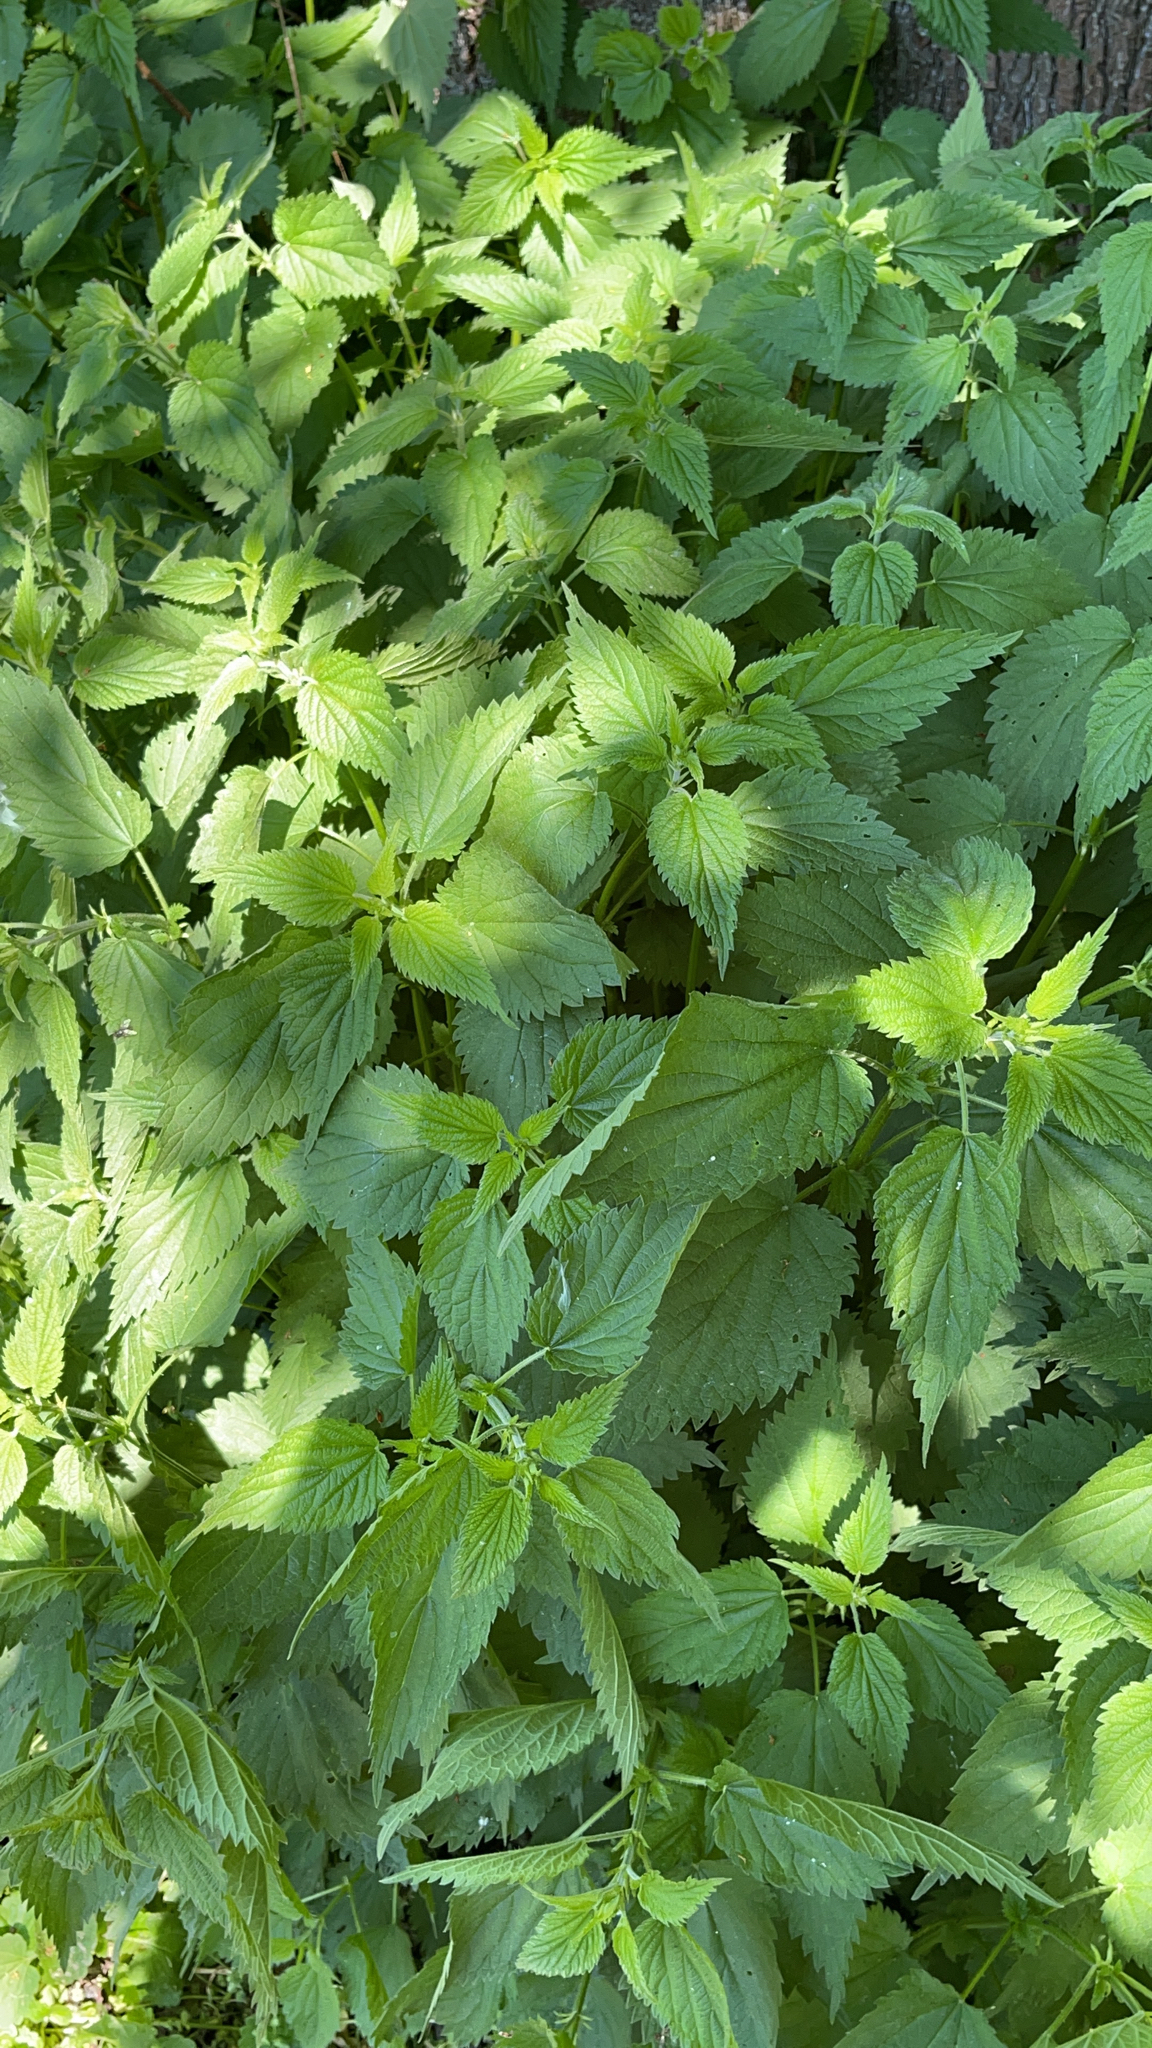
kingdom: Plantae
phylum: Tracheophyta
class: Magnoliopsida
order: Rosales
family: Urticaceae
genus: Urtica
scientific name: Urtica dioica
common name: Common nettle
